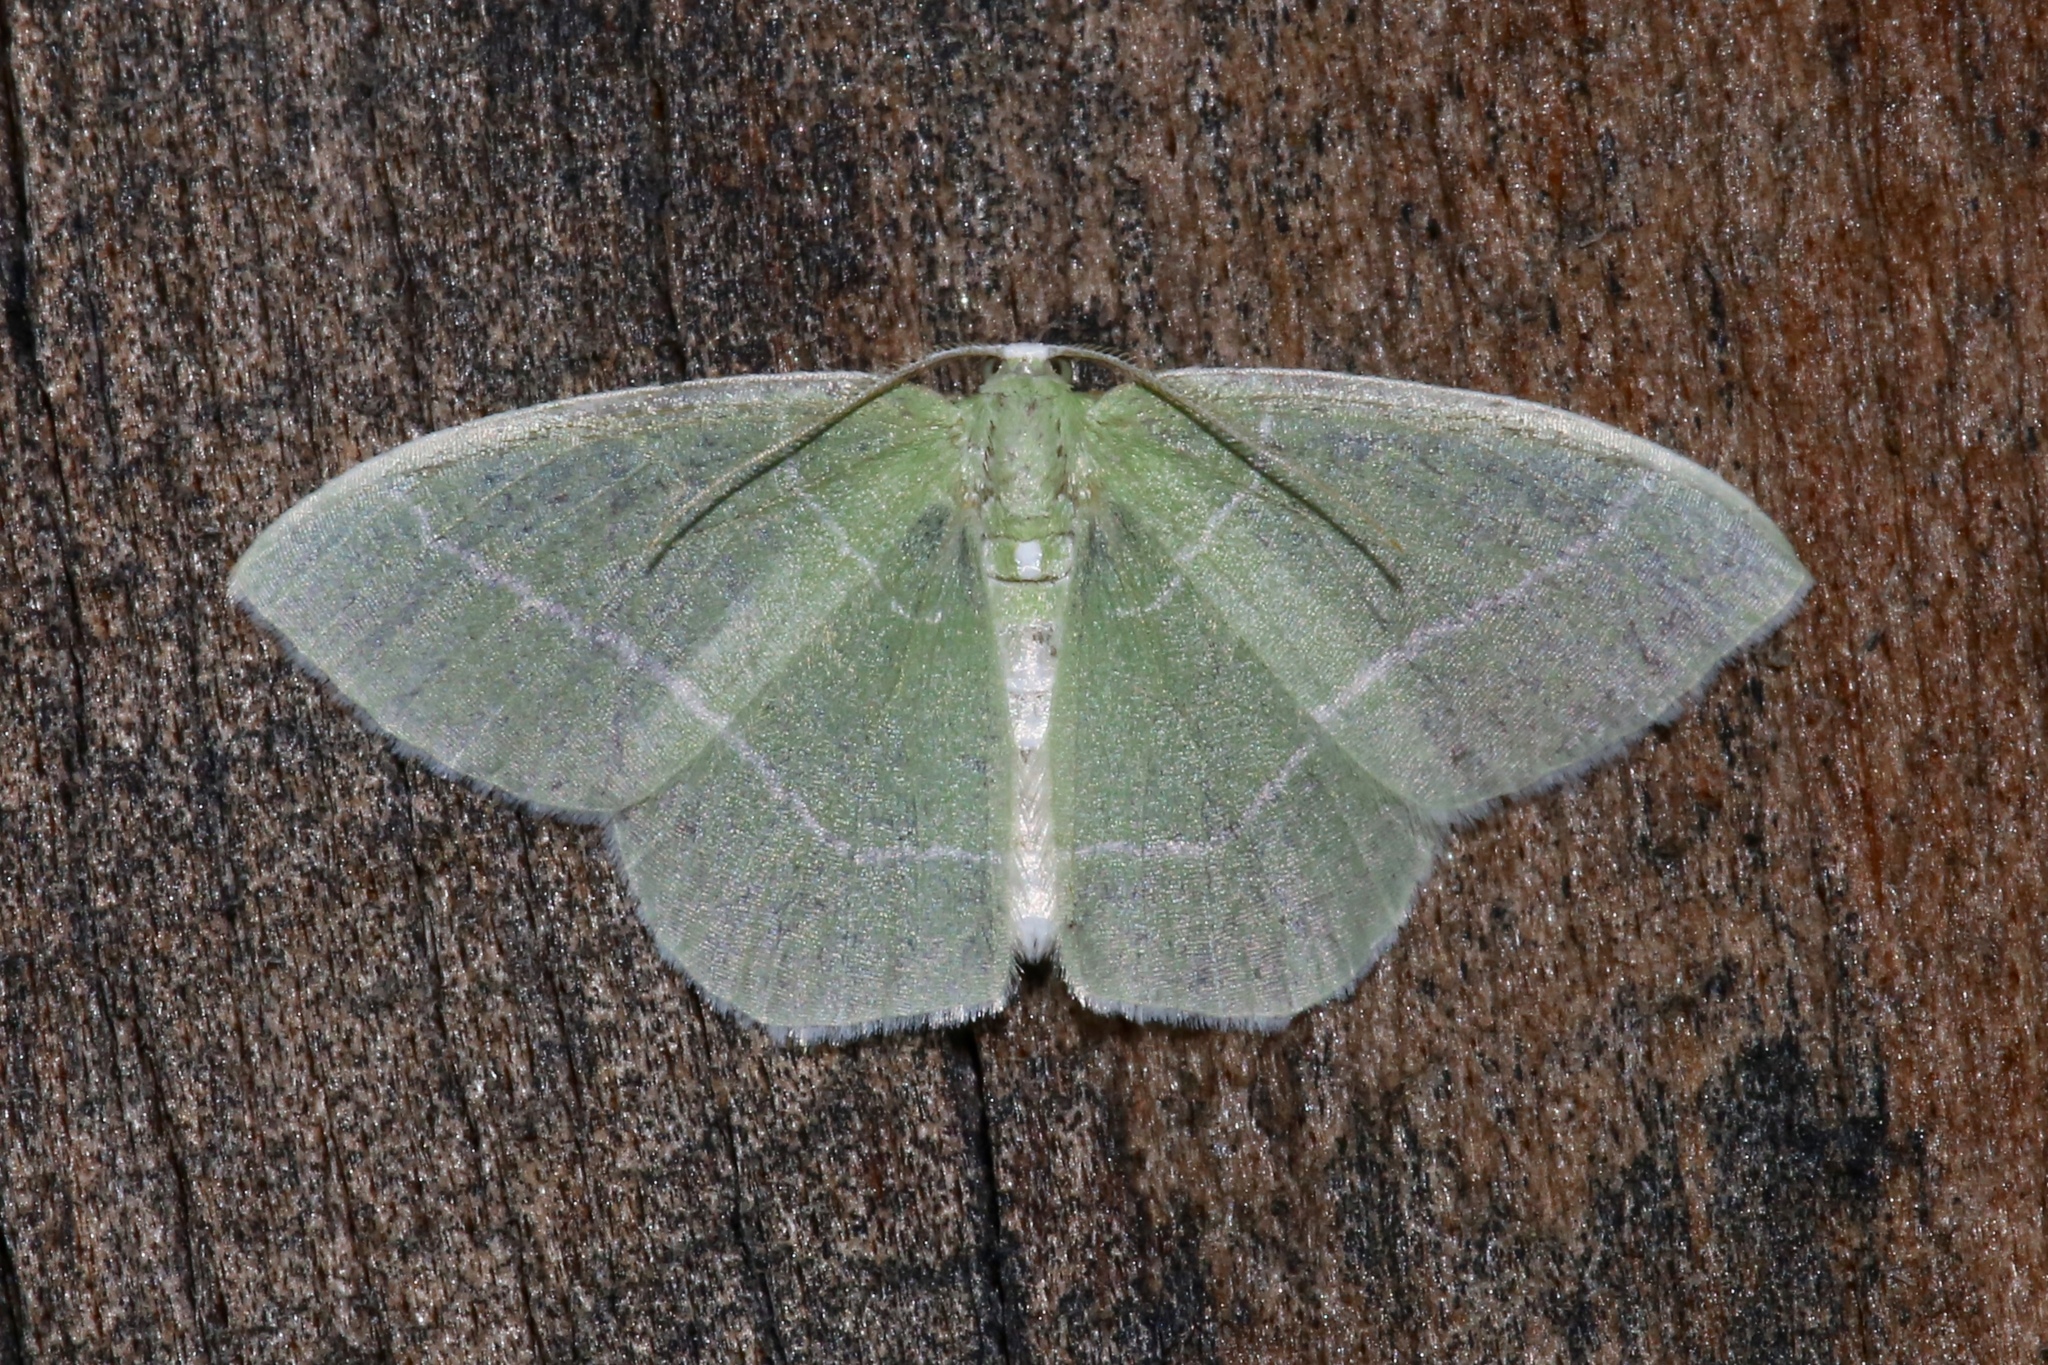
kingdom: Animalia
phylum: Arthropoda
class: Insecta
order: Lepidoptera
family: Geometridae
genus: Nemoria
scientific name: Nemoria mimosaria
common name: White-fringed emerald
